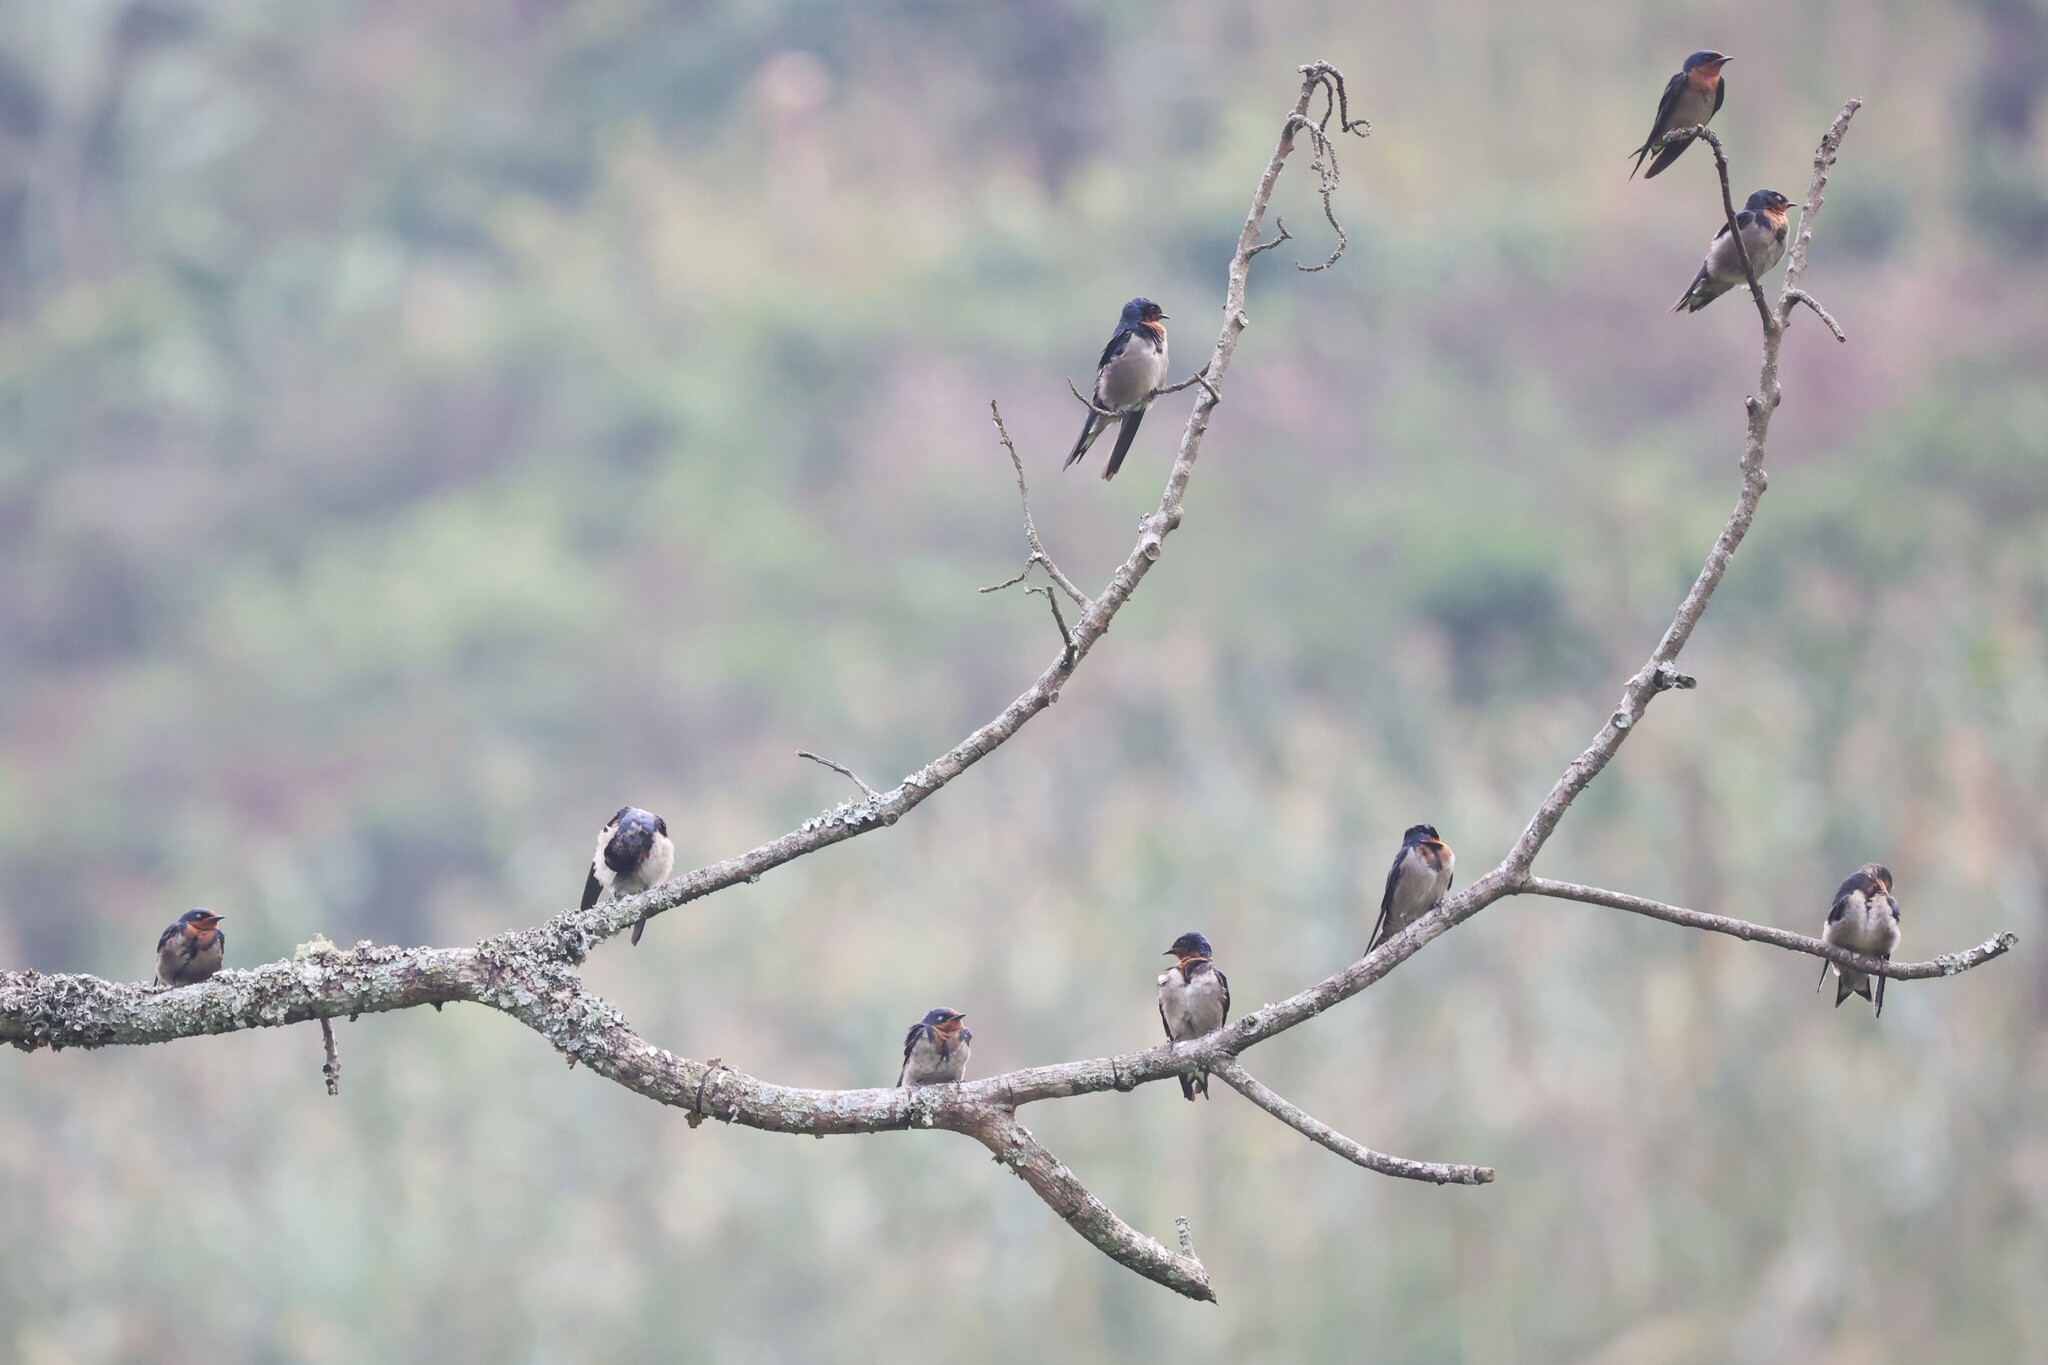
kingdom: Animalia
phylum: Chordata
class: Aves
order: Passeriformes
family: Hirundinidae
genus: Hirundo
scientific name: Hirundo angolensis
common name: Angola swallow
